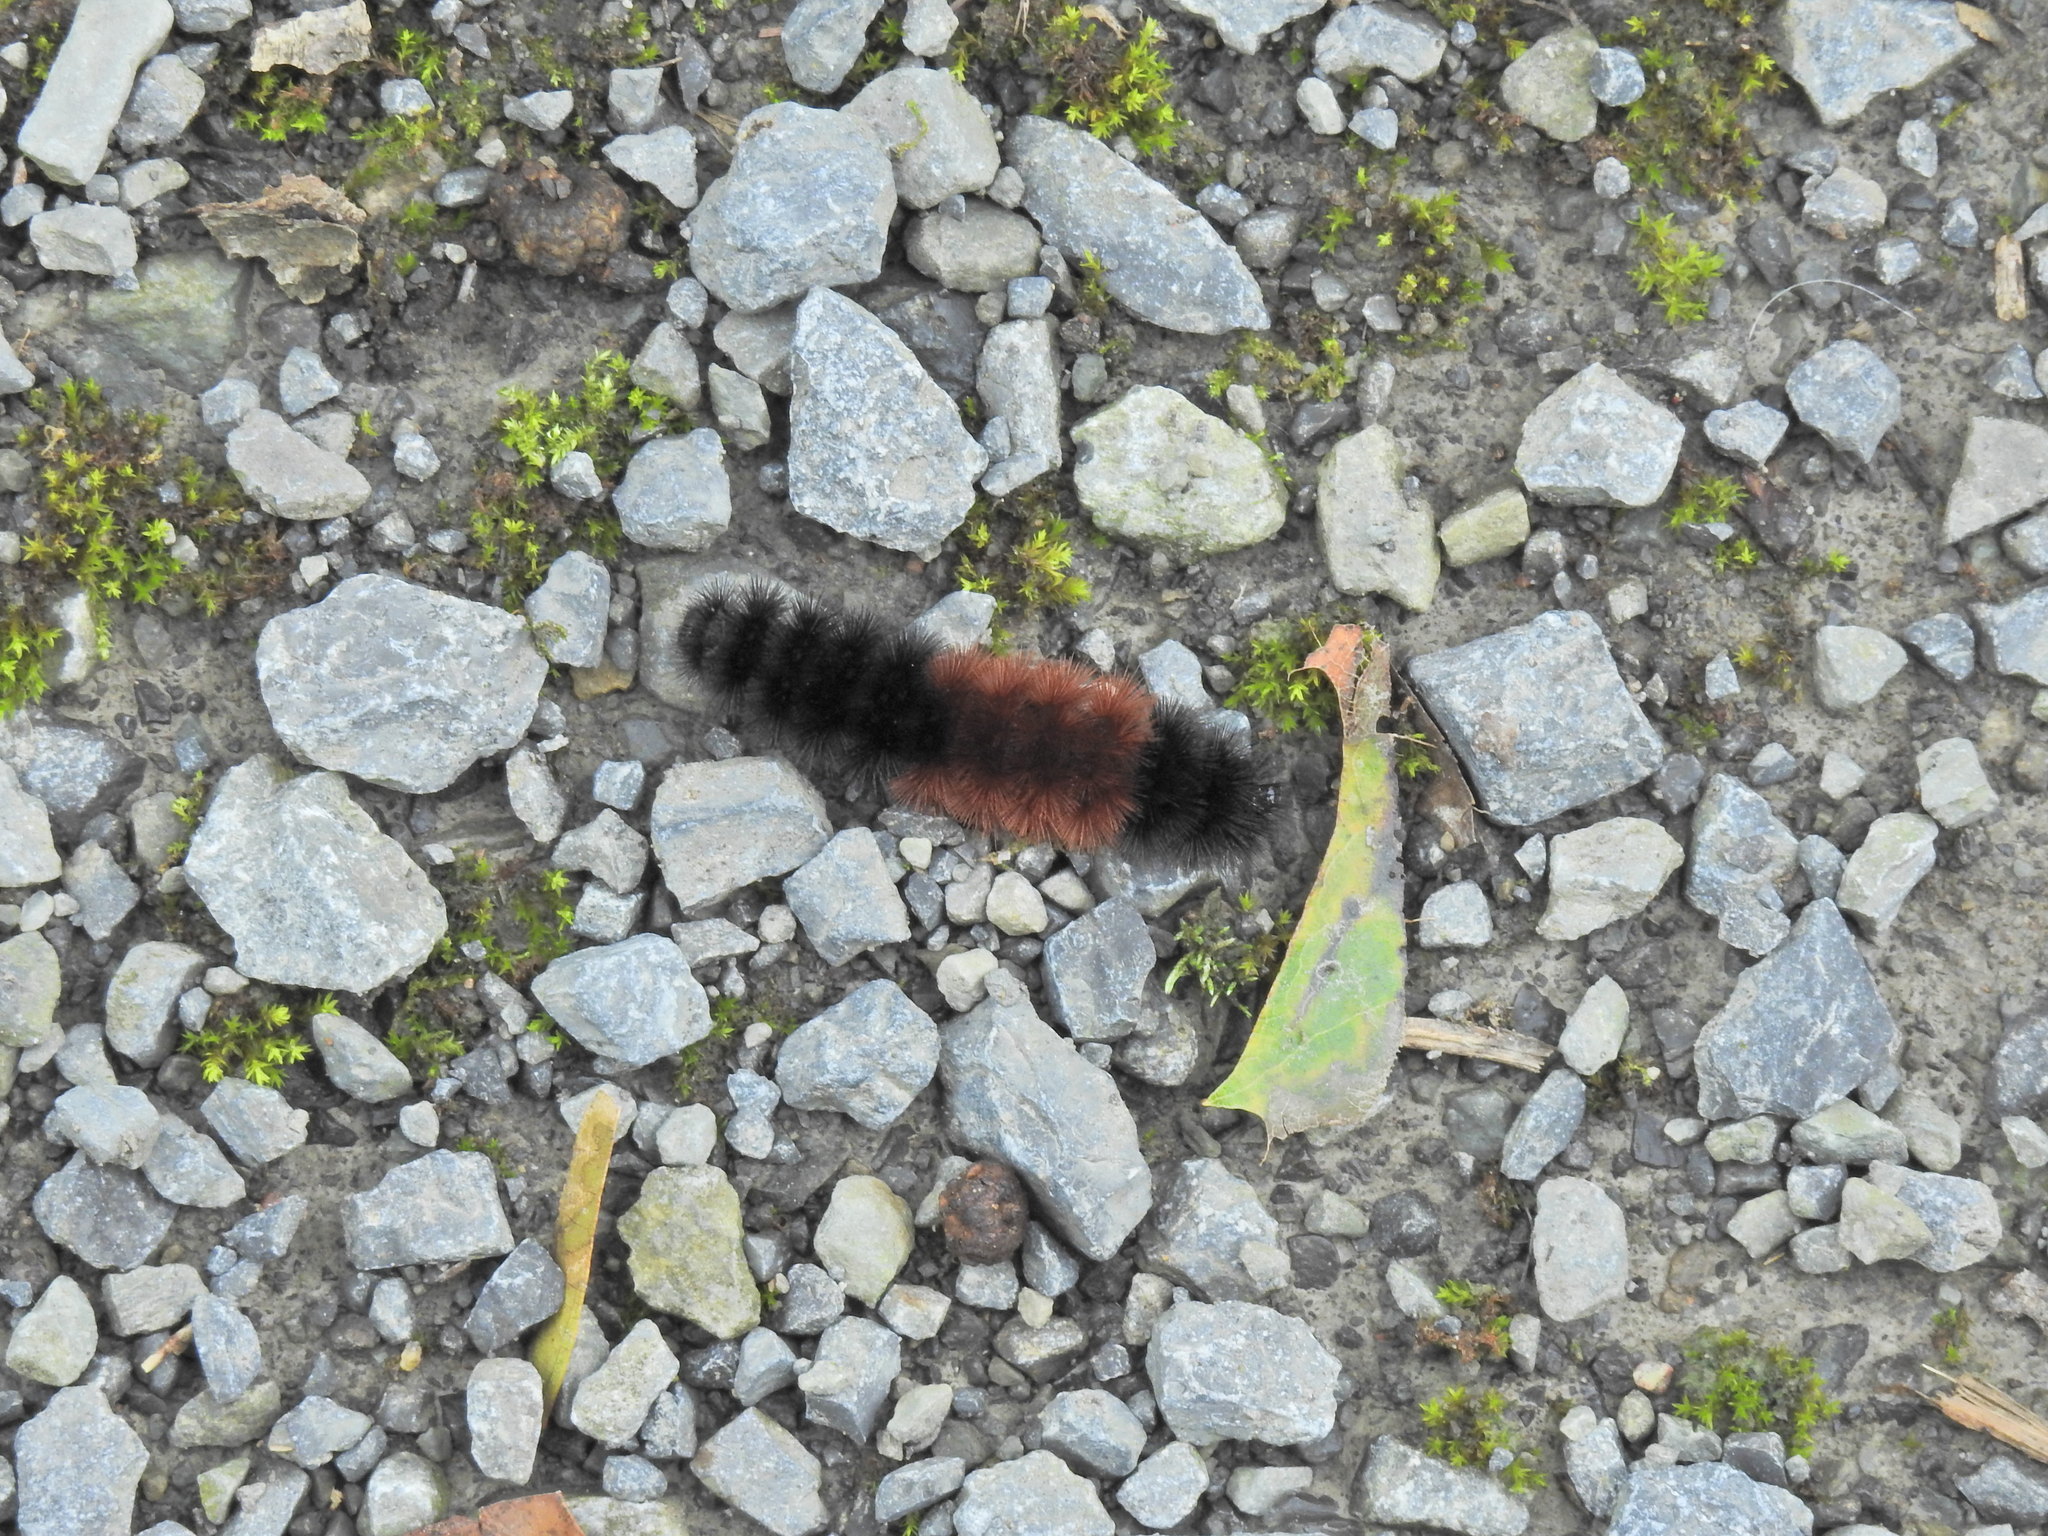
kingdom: Animalia
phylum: Arthropoda
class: Insecta
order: Lepidoptera
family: Erebidae
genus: Pyrrharctia
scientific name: Pyrrharctia isabella
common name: Isabella tiger moth
